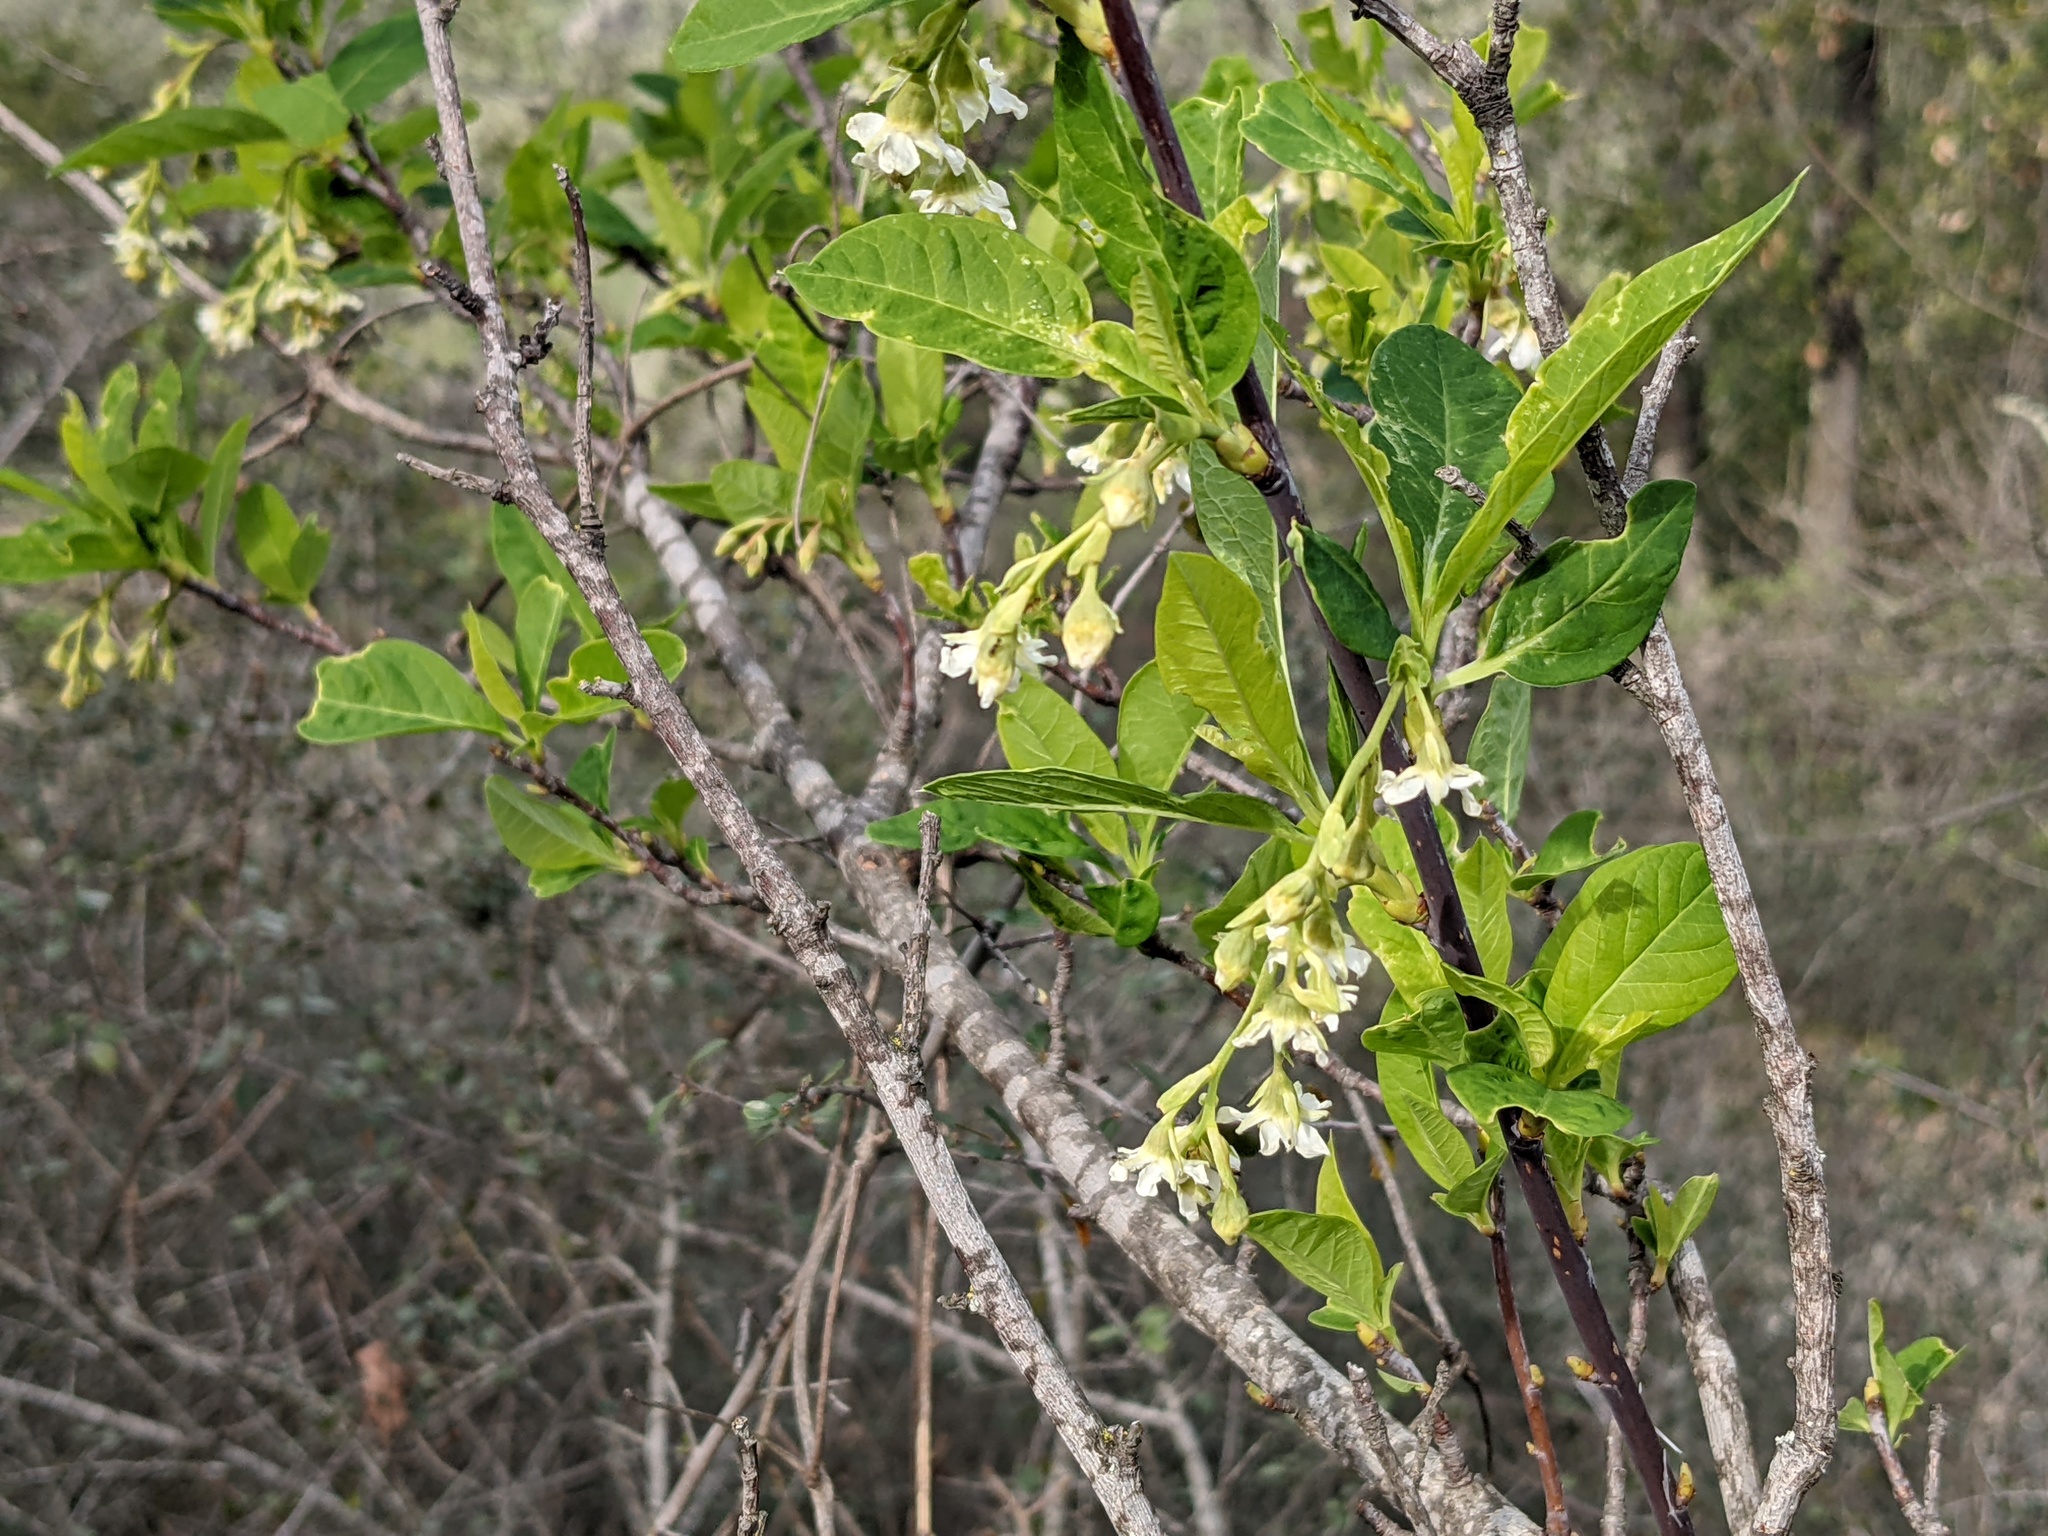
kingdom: Plantae
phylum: Tracheophyta
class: Magnoliopsida
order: Rosales
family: Rosaceae
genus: Oemleria
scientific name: Oemleria cerasiformis
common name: Osoberry
